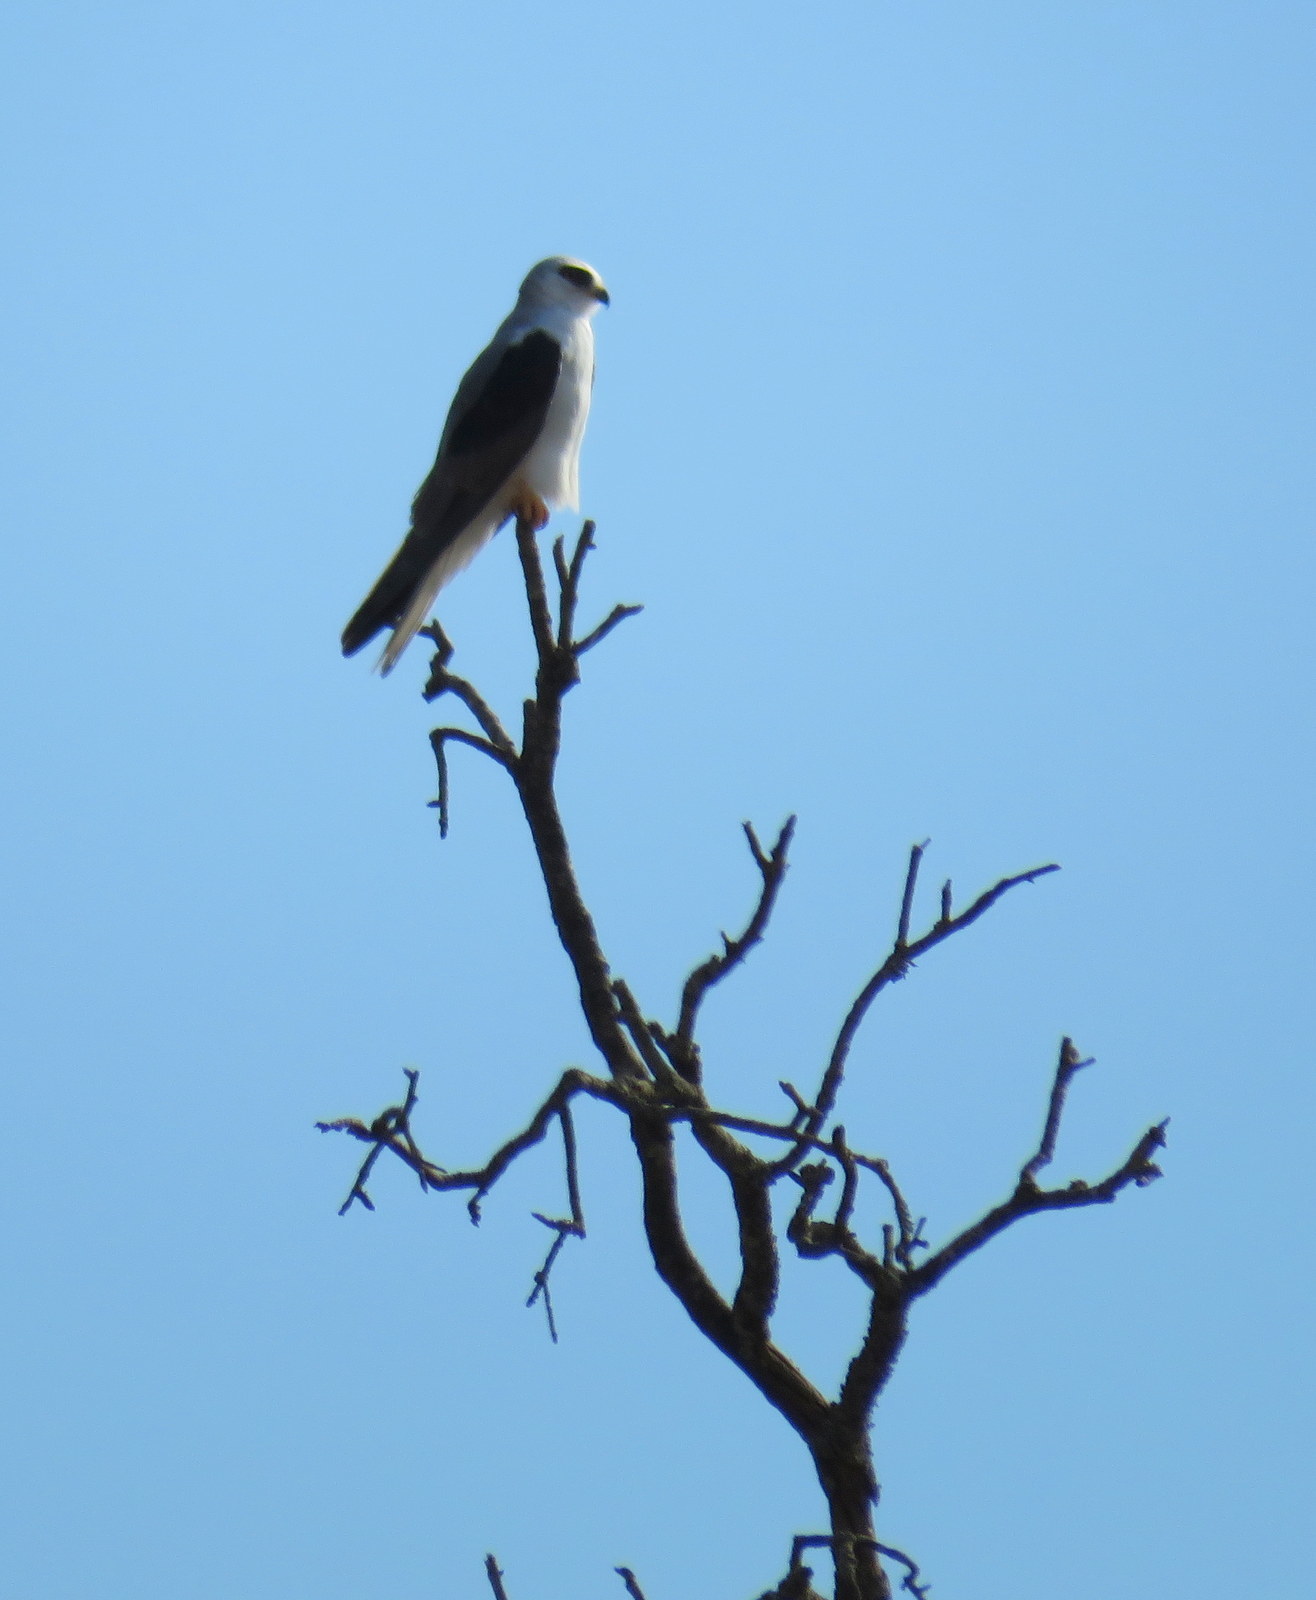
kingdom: Animalia
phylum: Chordata
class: Aves
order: Accipitriformes
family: Accipitridae
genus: Elanus
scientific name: Elanus leucurus
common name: White-tailed kite
